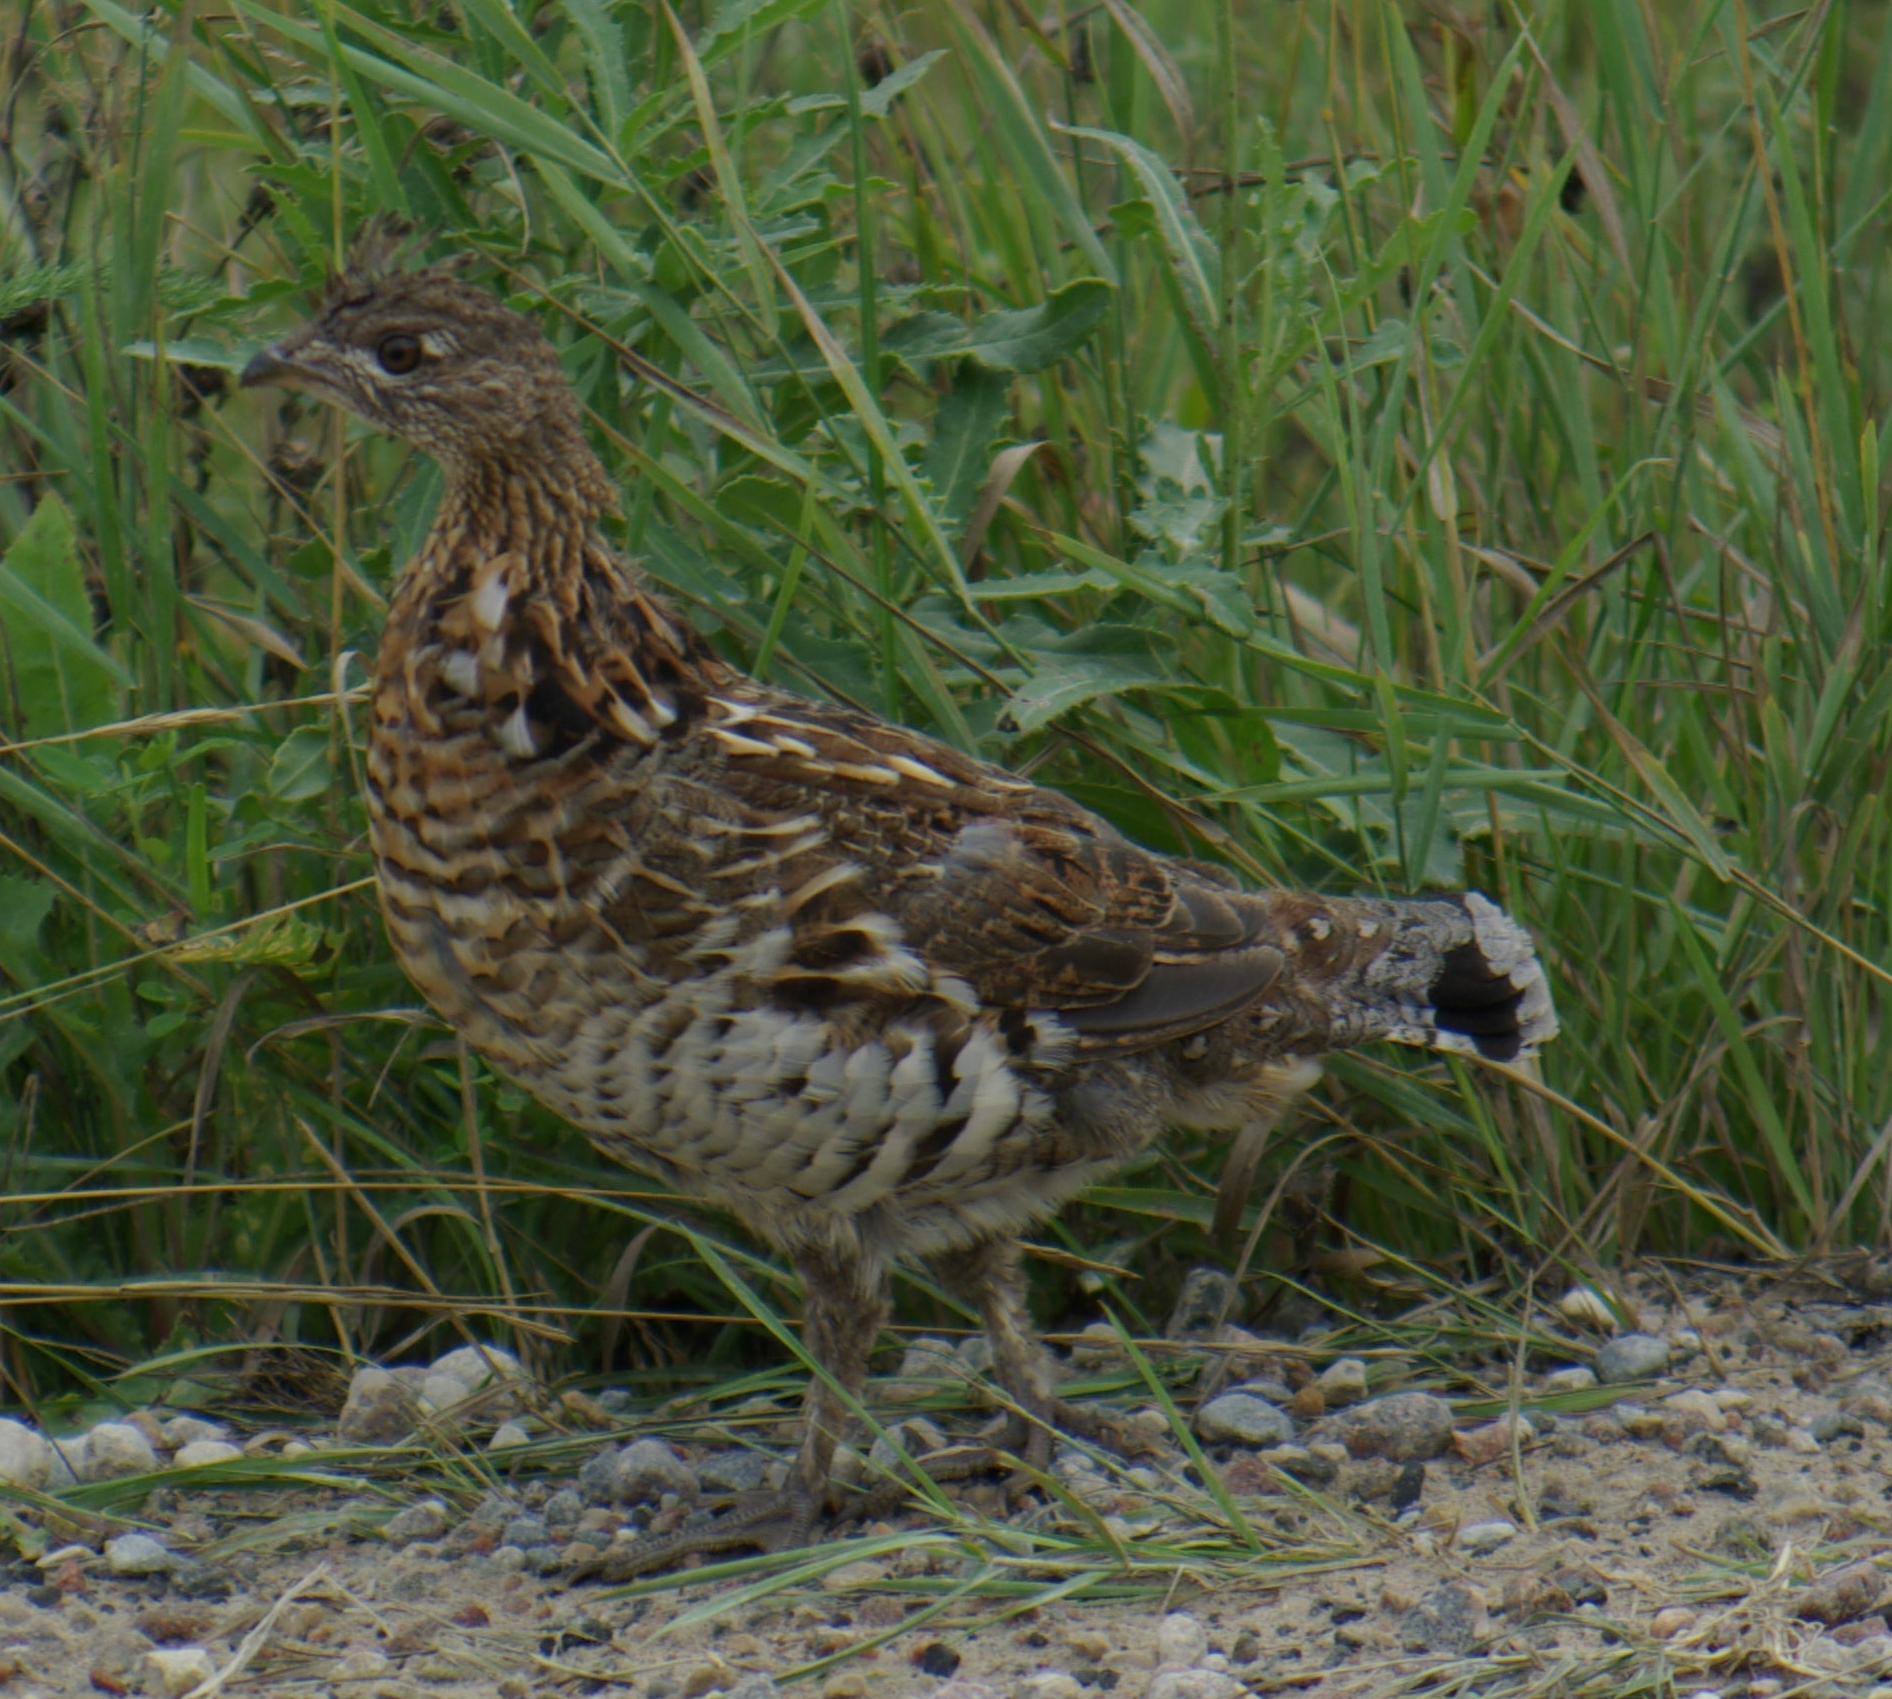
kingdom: Animalia
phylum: Chordata
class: Aves
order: Galliformes
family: Phasianidae
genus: Bonasa
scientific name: Bonasa umbellus
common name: Ruffed grouse
